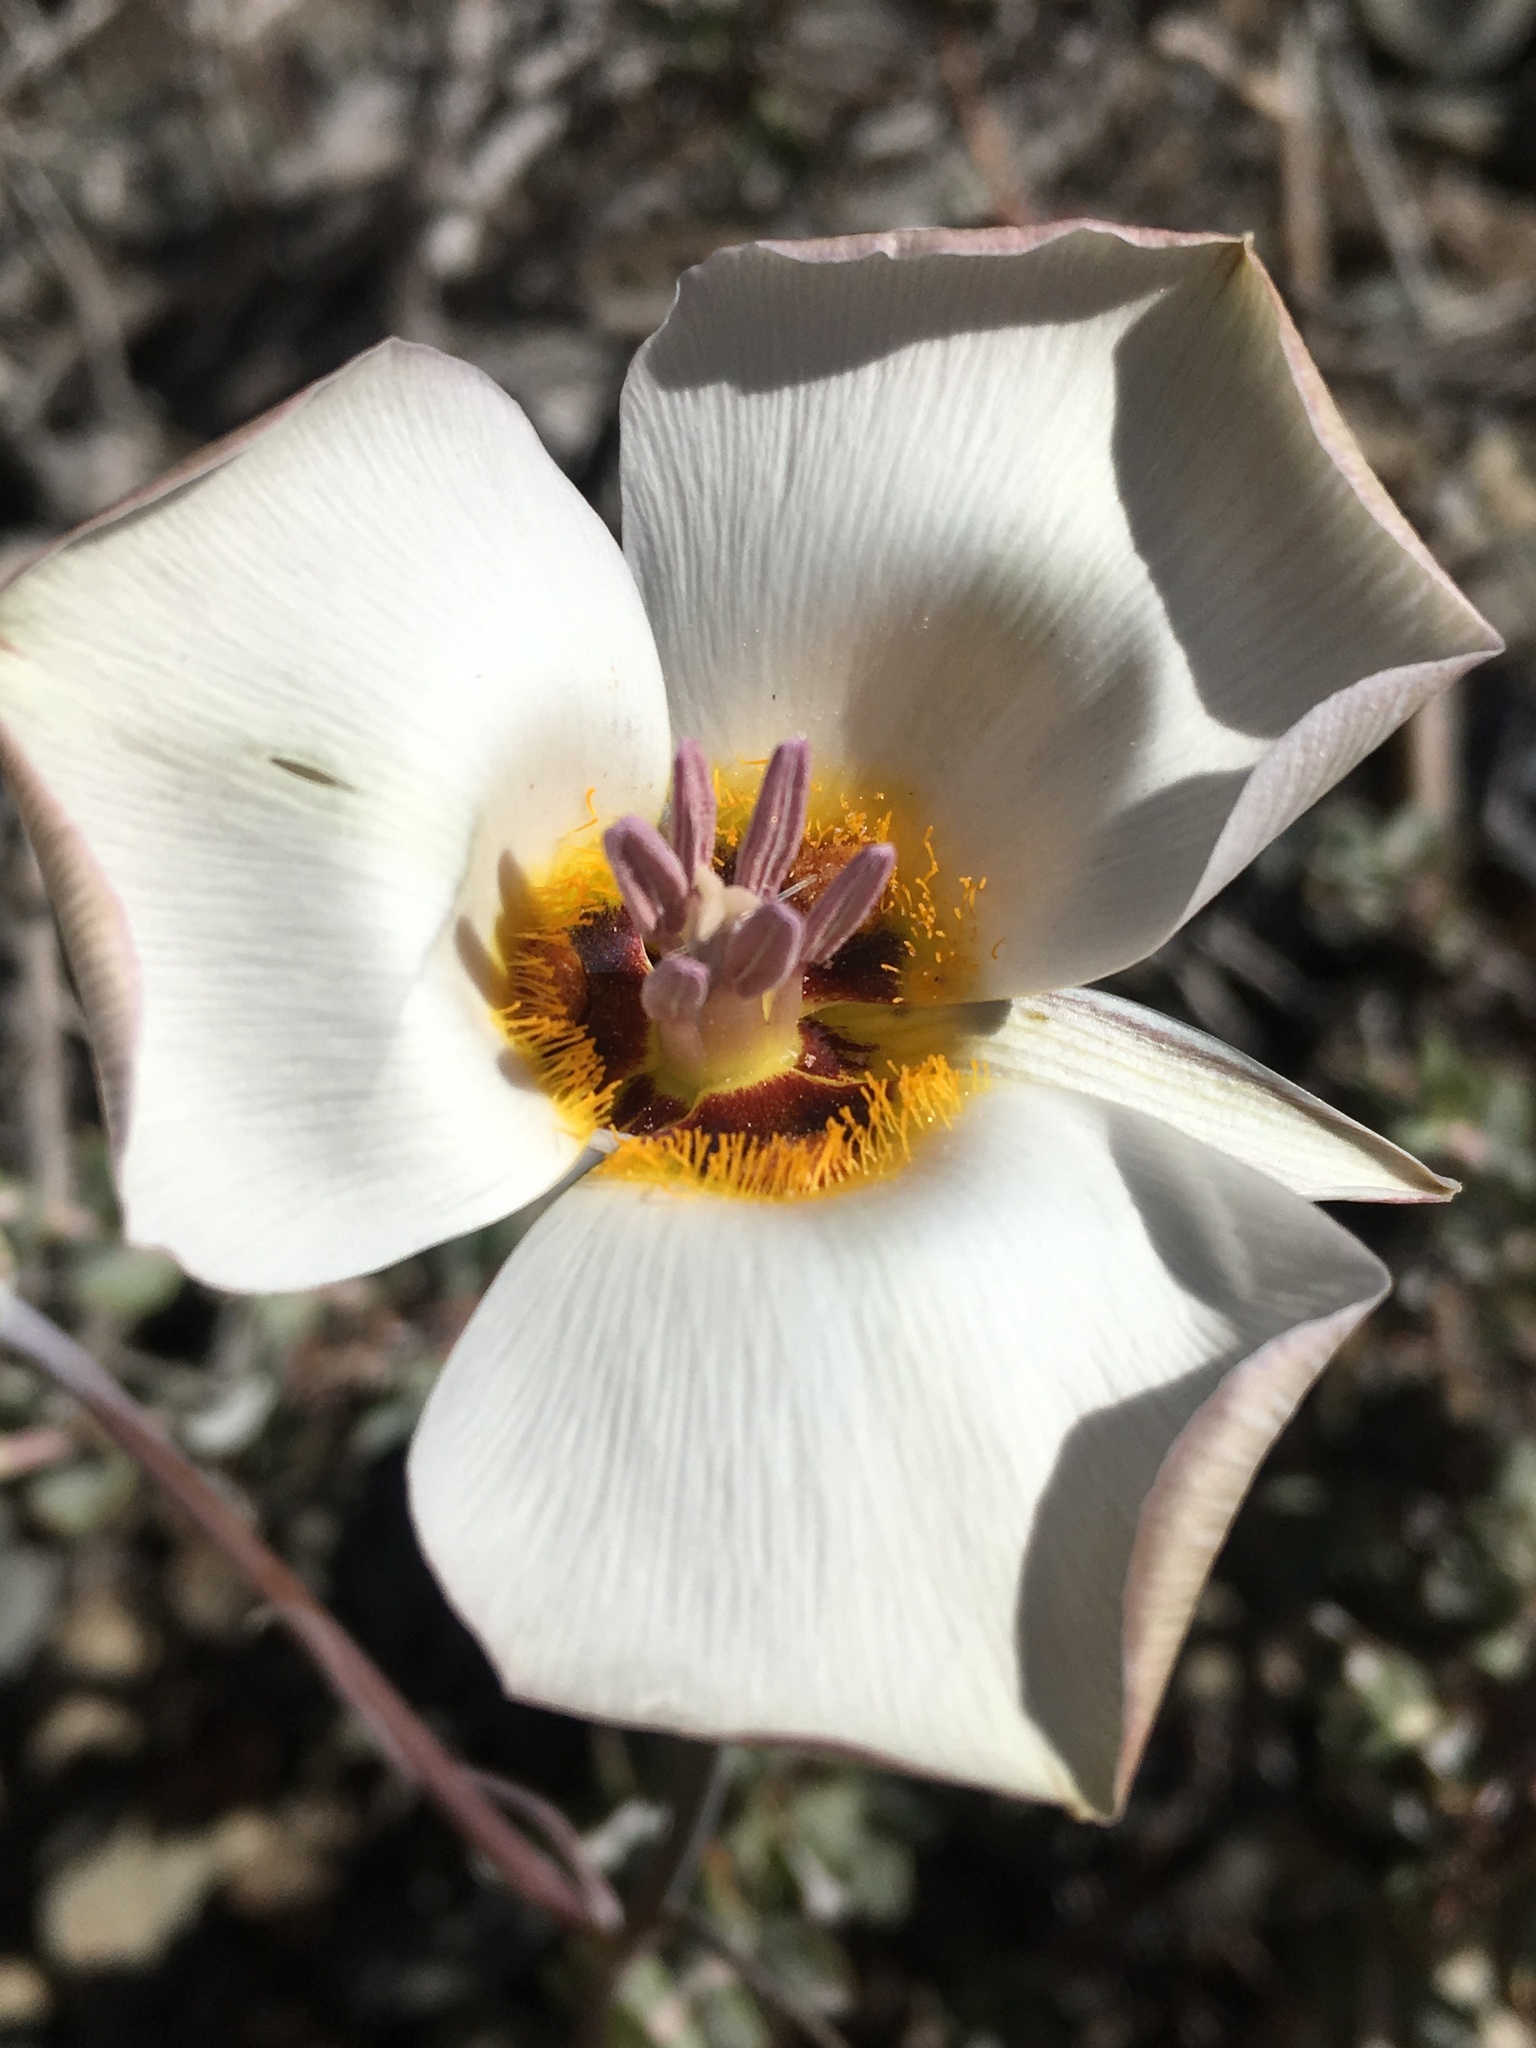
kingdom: Plantae
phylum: Tracheophyta
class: Liliopsida
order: Liliales
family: Liliaceae
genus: Calochortus
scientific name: Calochortus panamintensis
